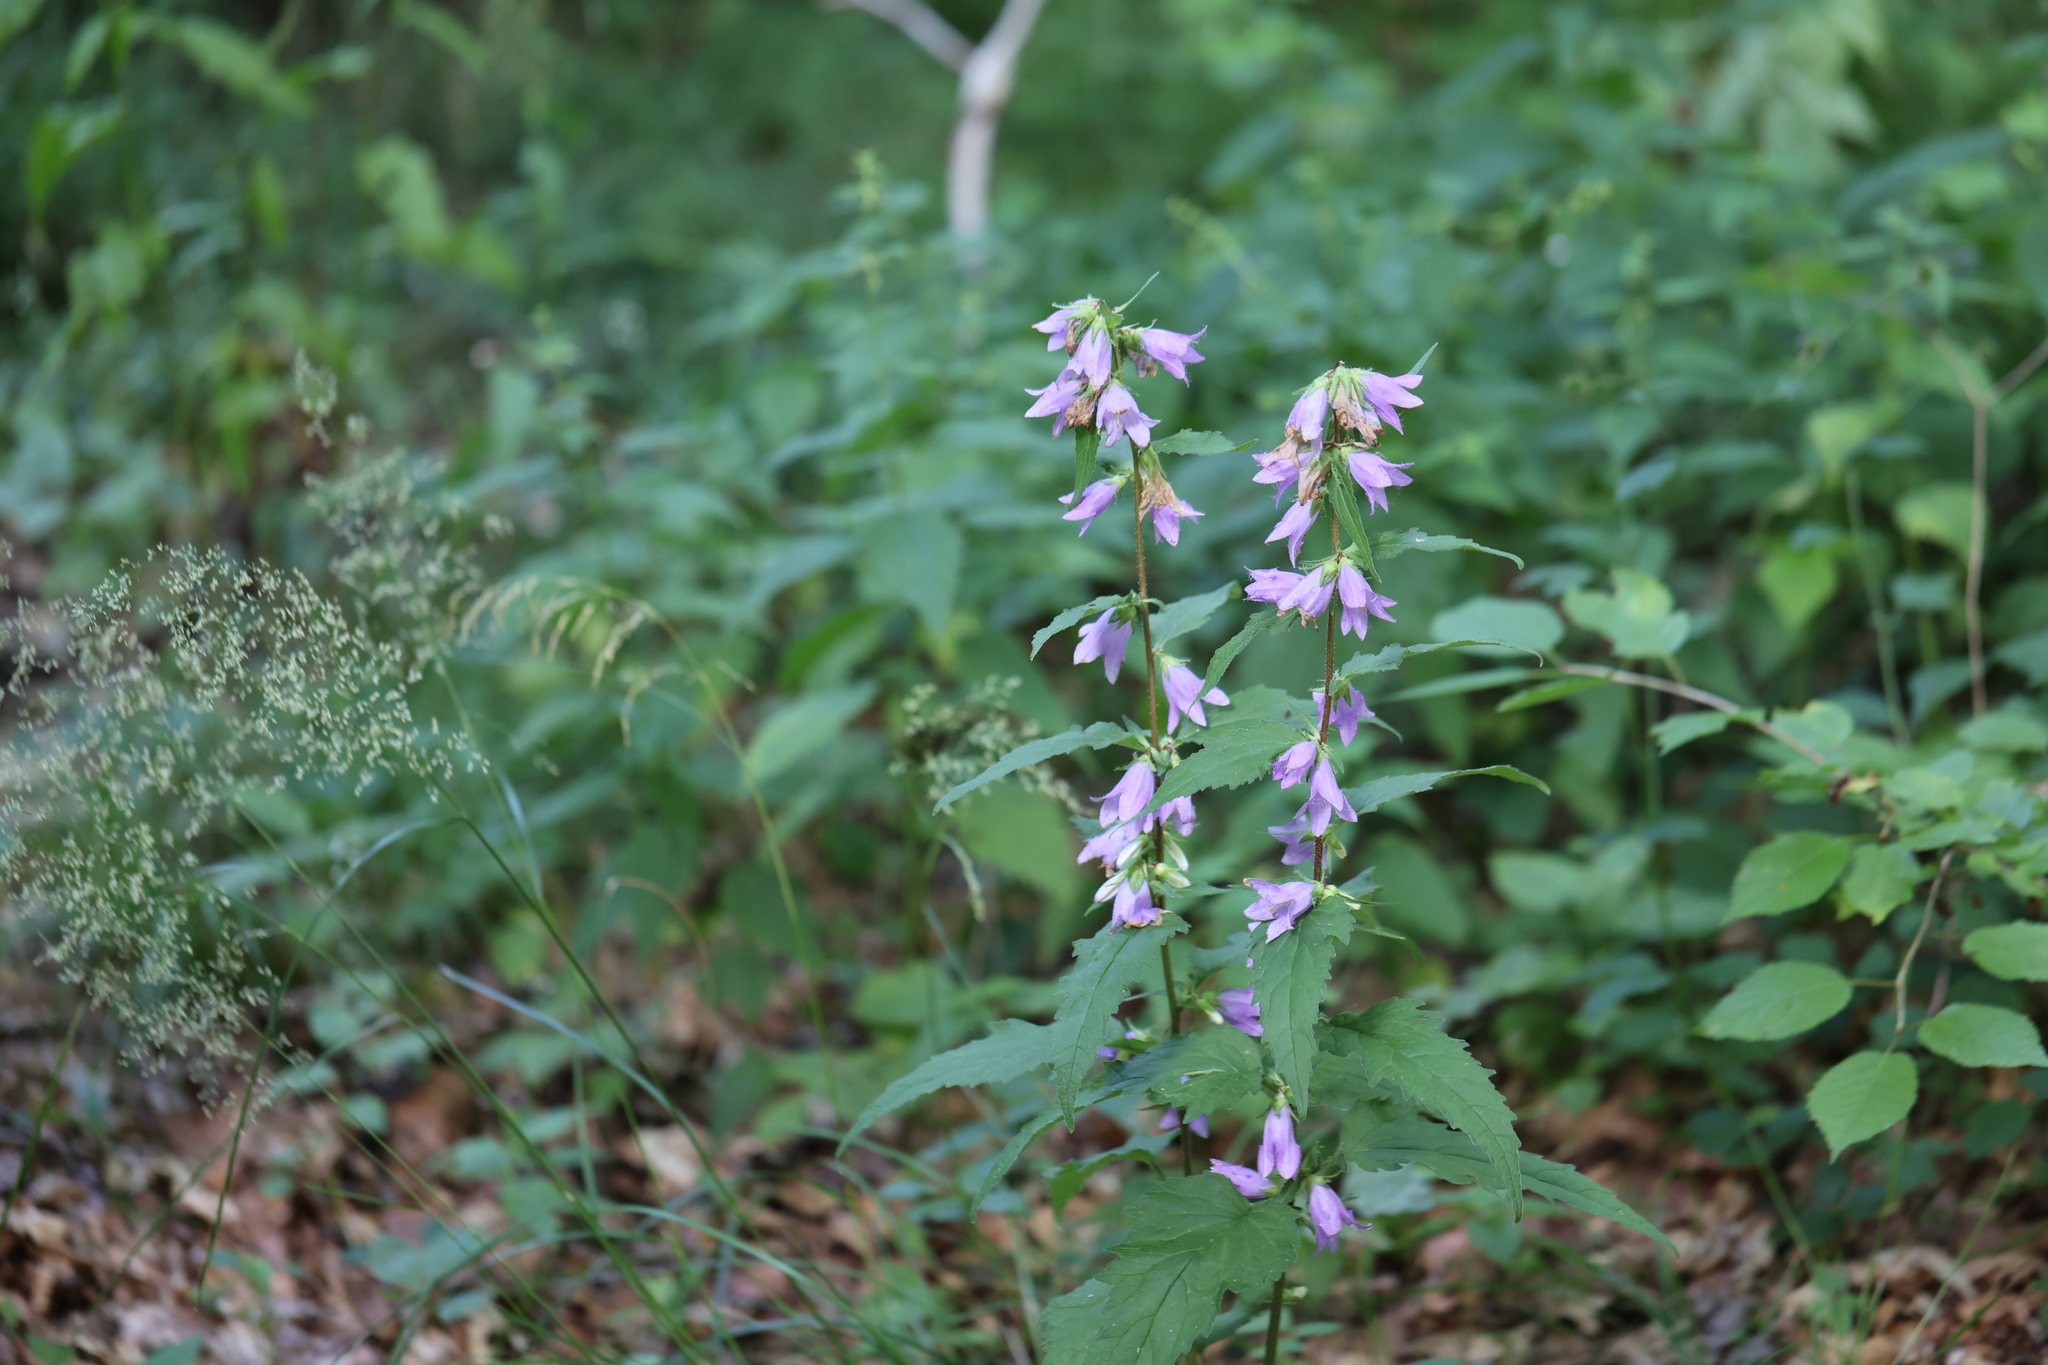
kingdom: Plantae
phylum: Tracheophyta
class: Magnoliopsida
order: Asterales
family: Campanulaceae
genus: Campanula
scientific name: Campanula trachelium
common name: Nettle-leaved bellflower
